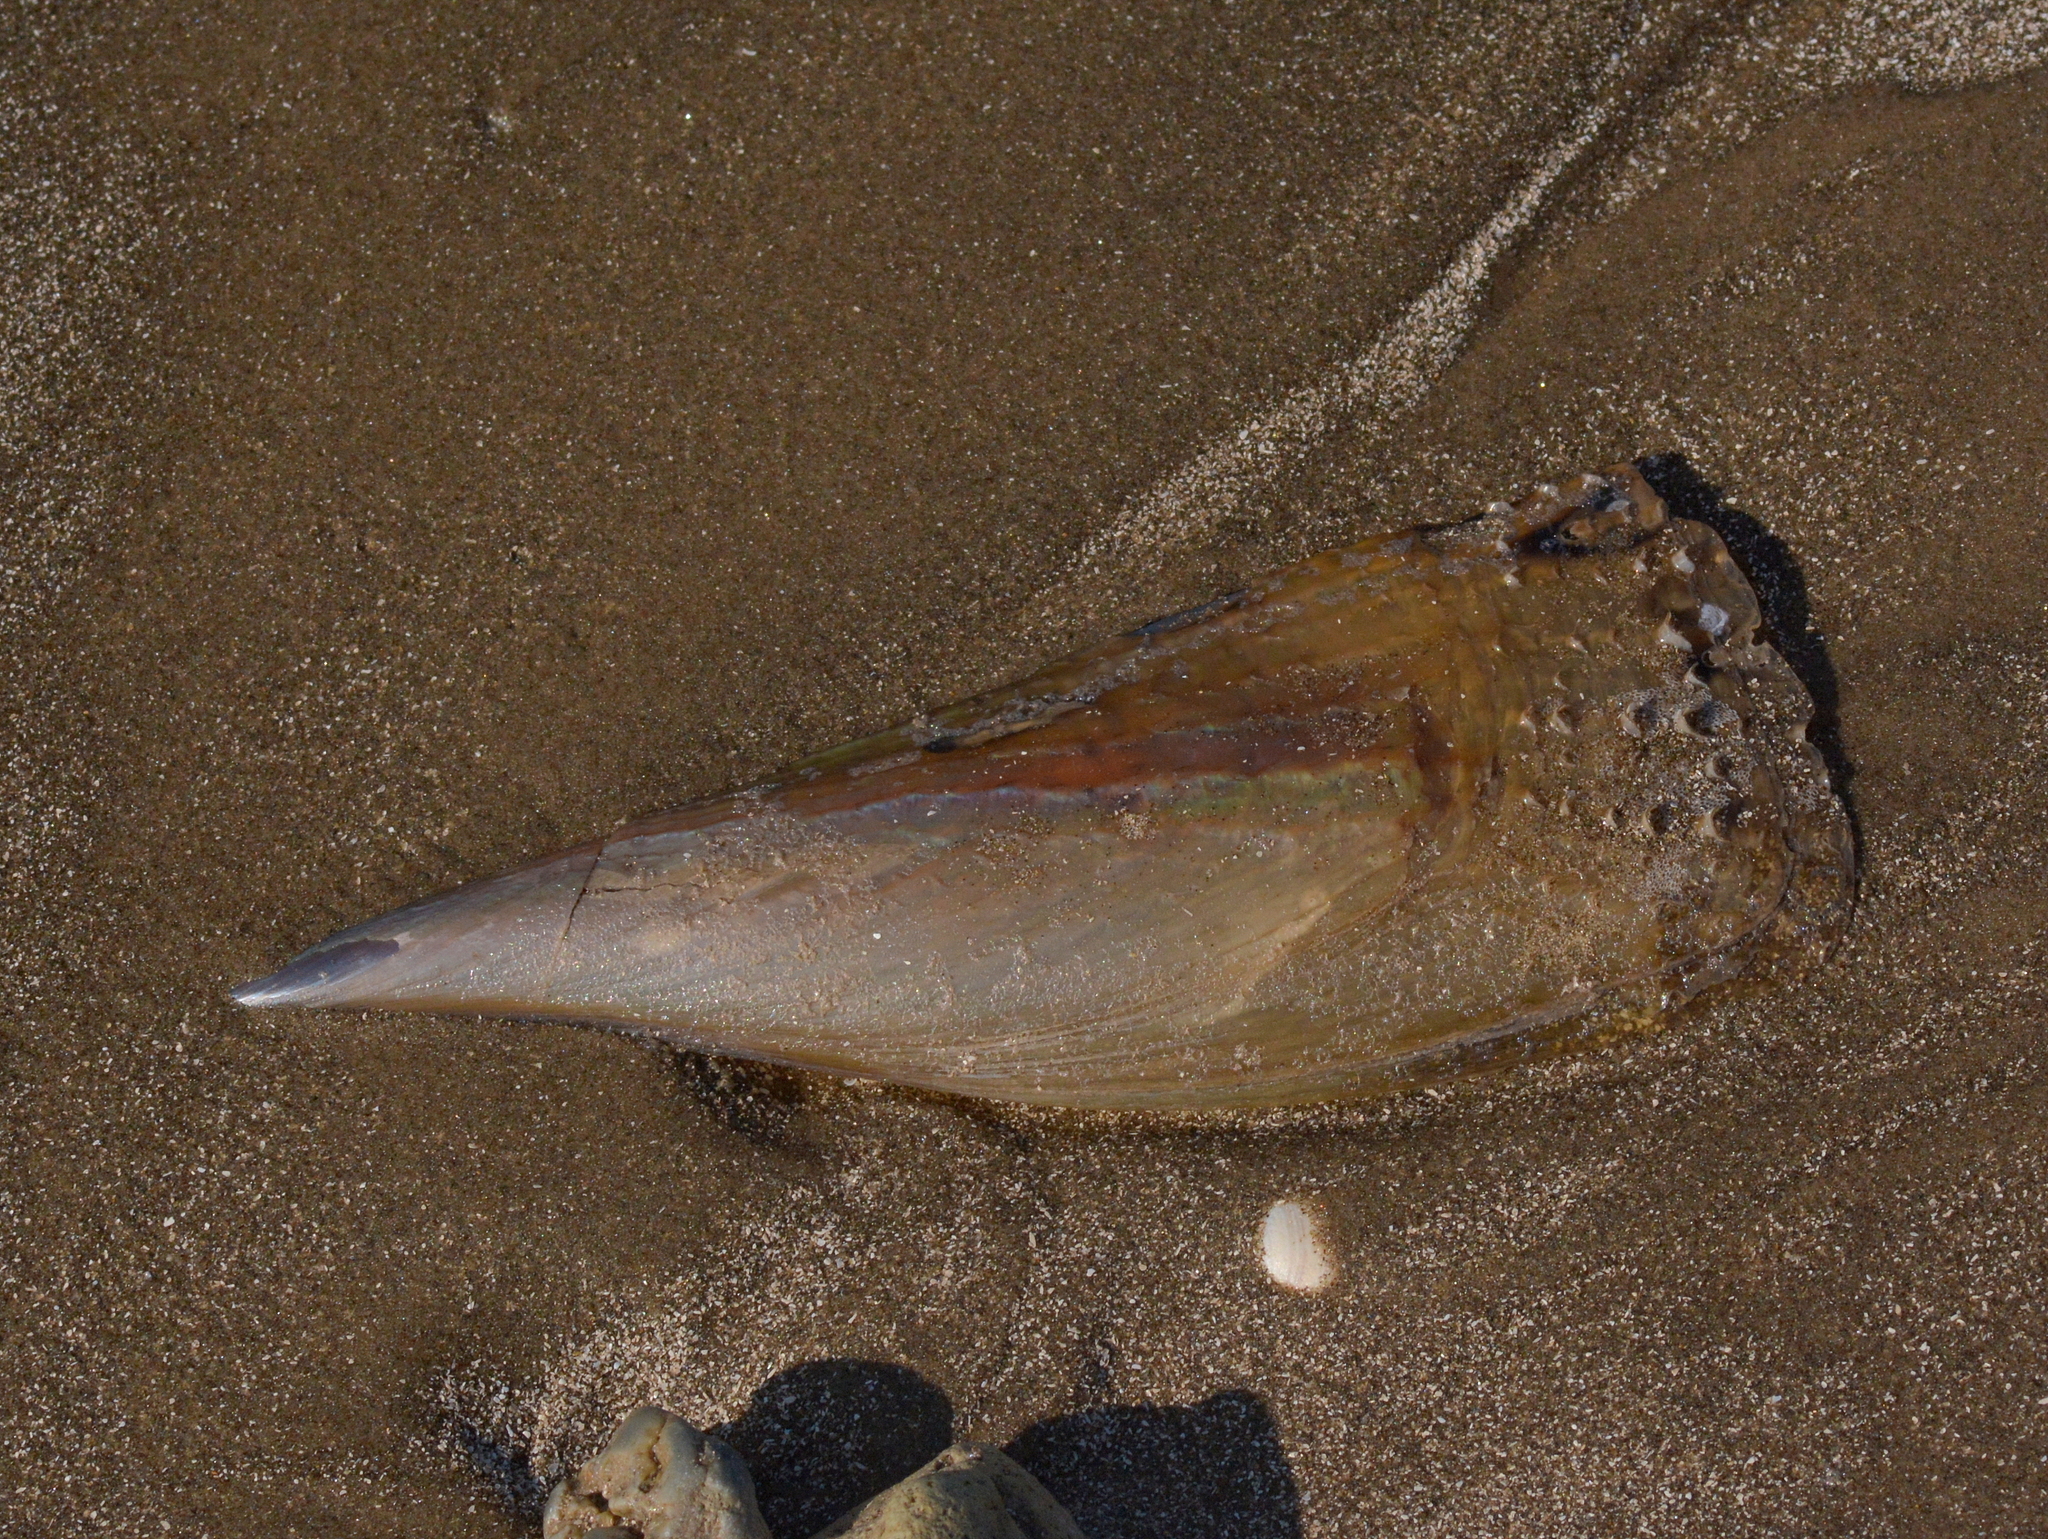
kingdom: Animalia
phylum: Mollusca
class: Bivalvia
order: Ostreida
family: Pinnidae
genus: Atrina
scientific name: Atrina seminuda
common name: Half-naked penshell
